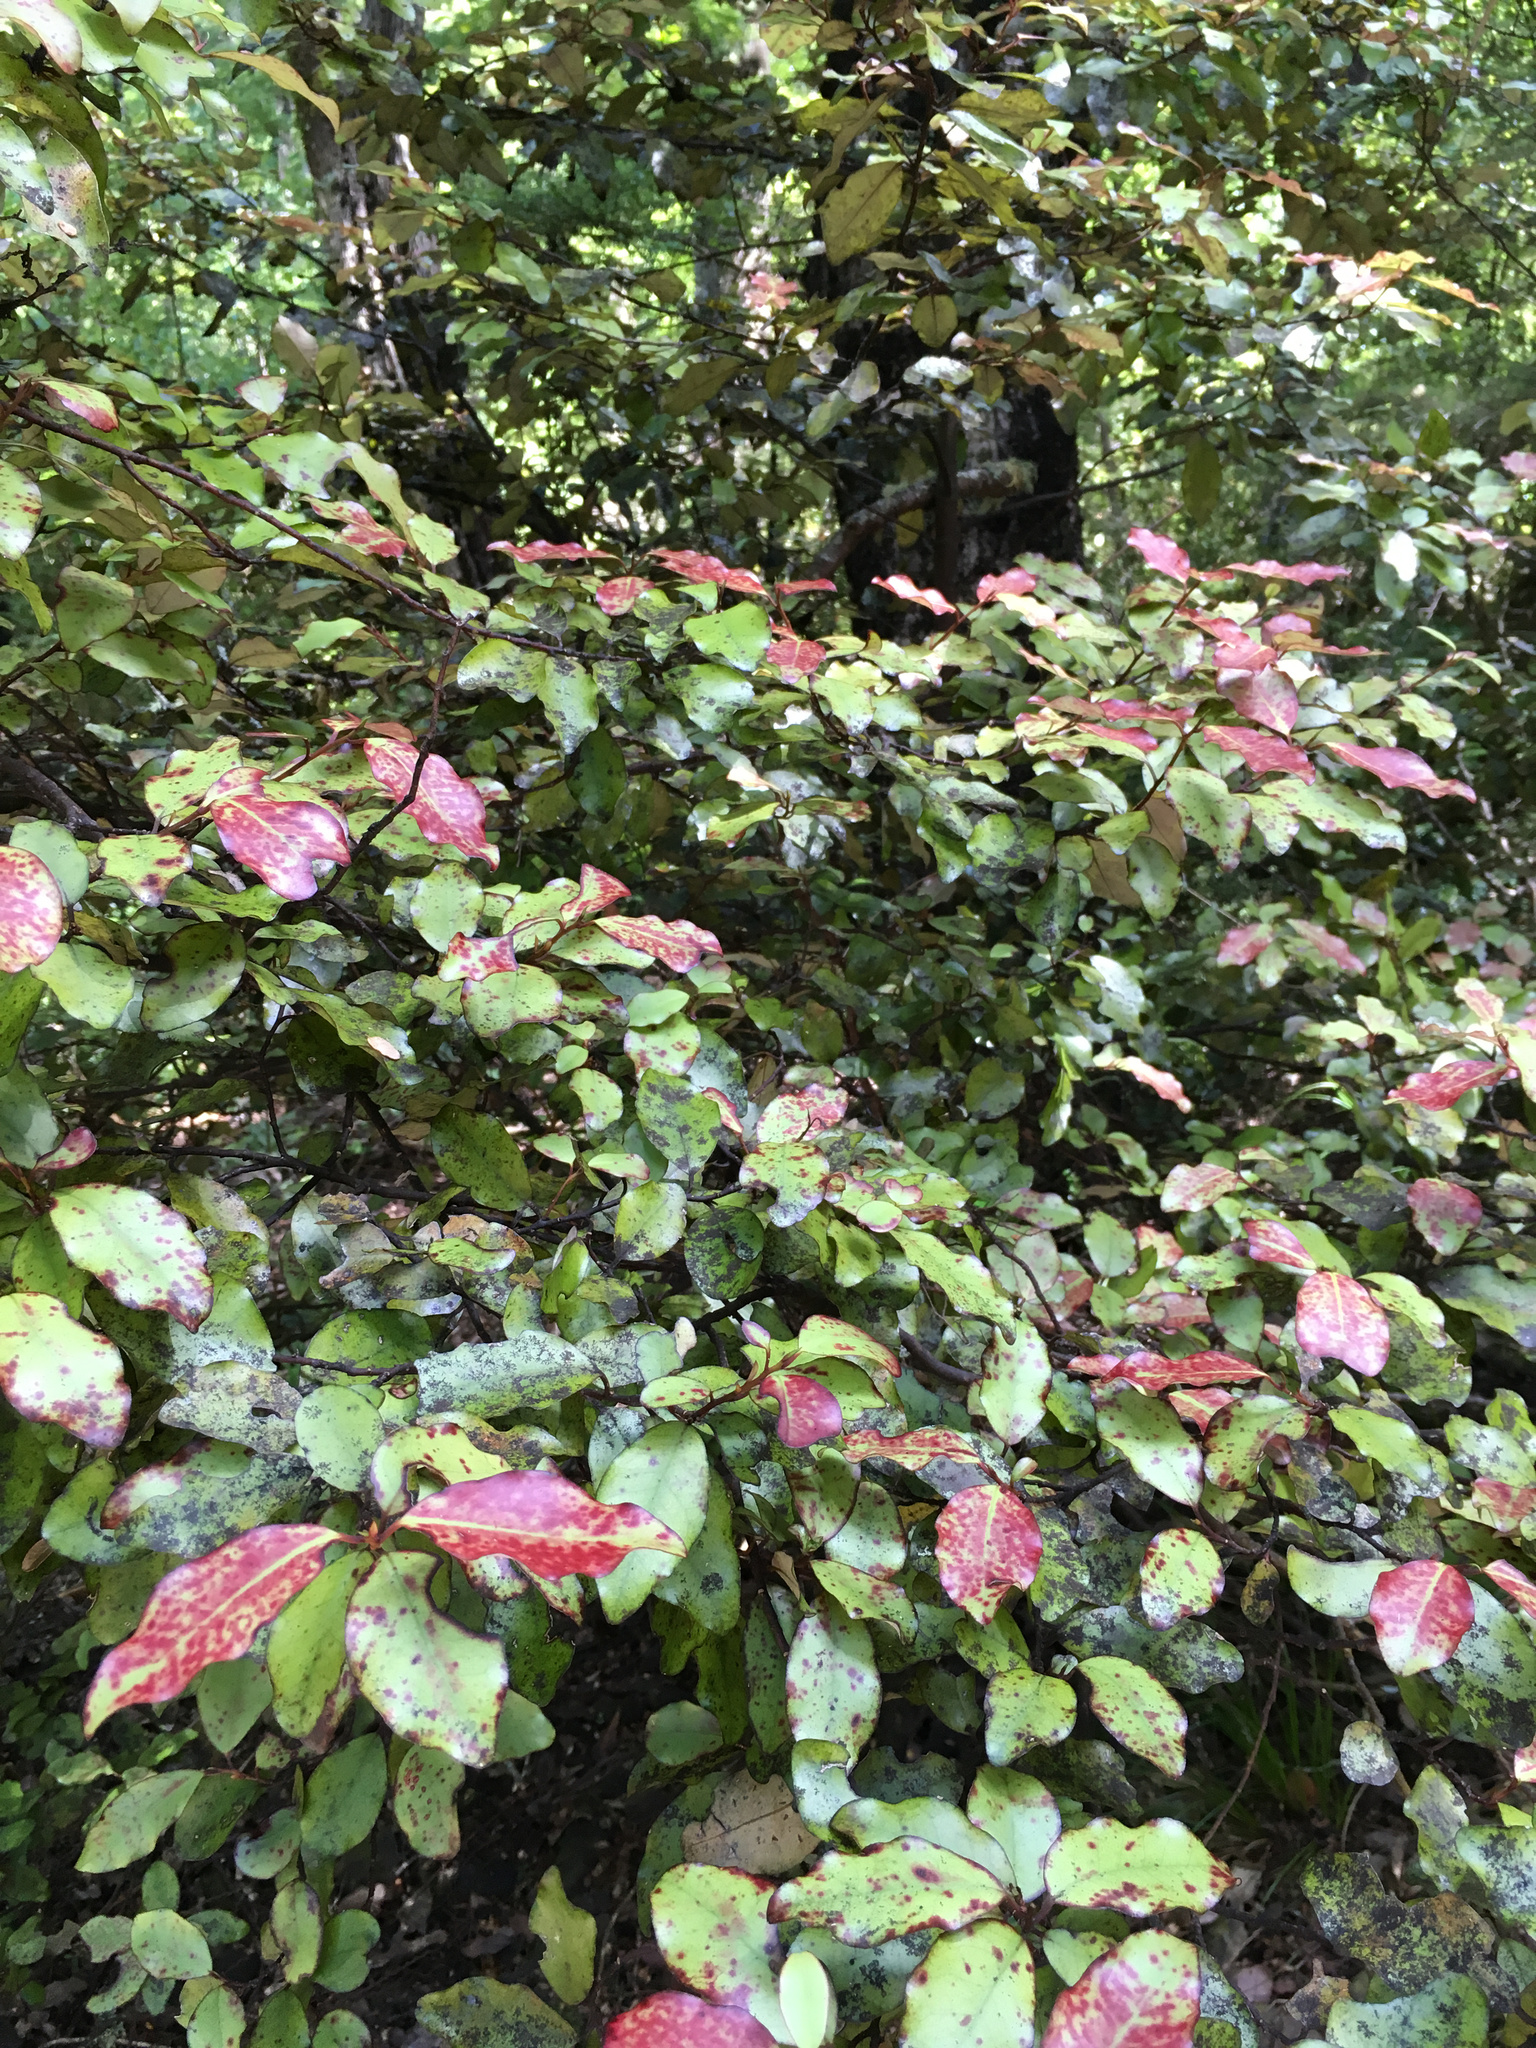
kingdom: Plantae
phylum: Tracheophyta
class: Magnoliopsida
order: Canellales
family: Winteraceae
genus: Pseudowintera
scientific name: Pseudowintera colorata
